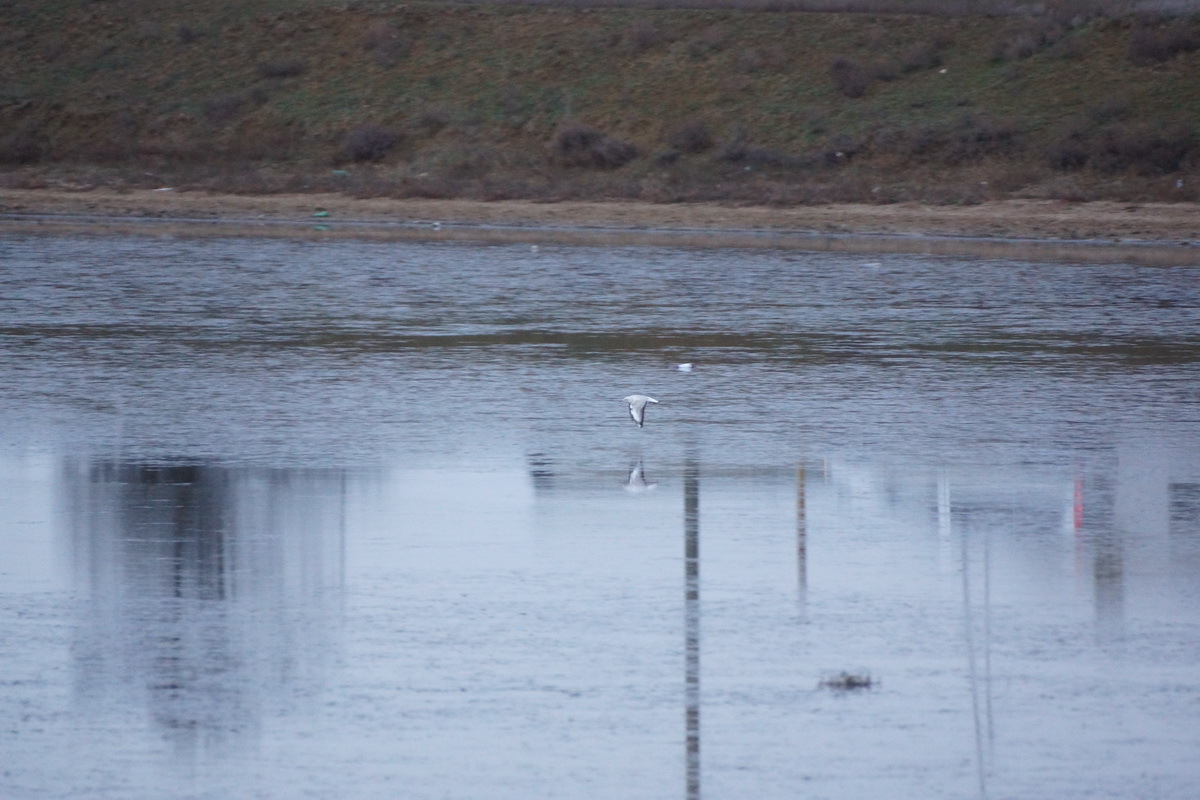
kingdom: Animalia
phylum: Chordata
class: Aves
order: Charadriiformes
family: Laridae
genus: Chroicocephalus
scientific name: Chroicocephalus ridibundus
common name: Black-headed gull
